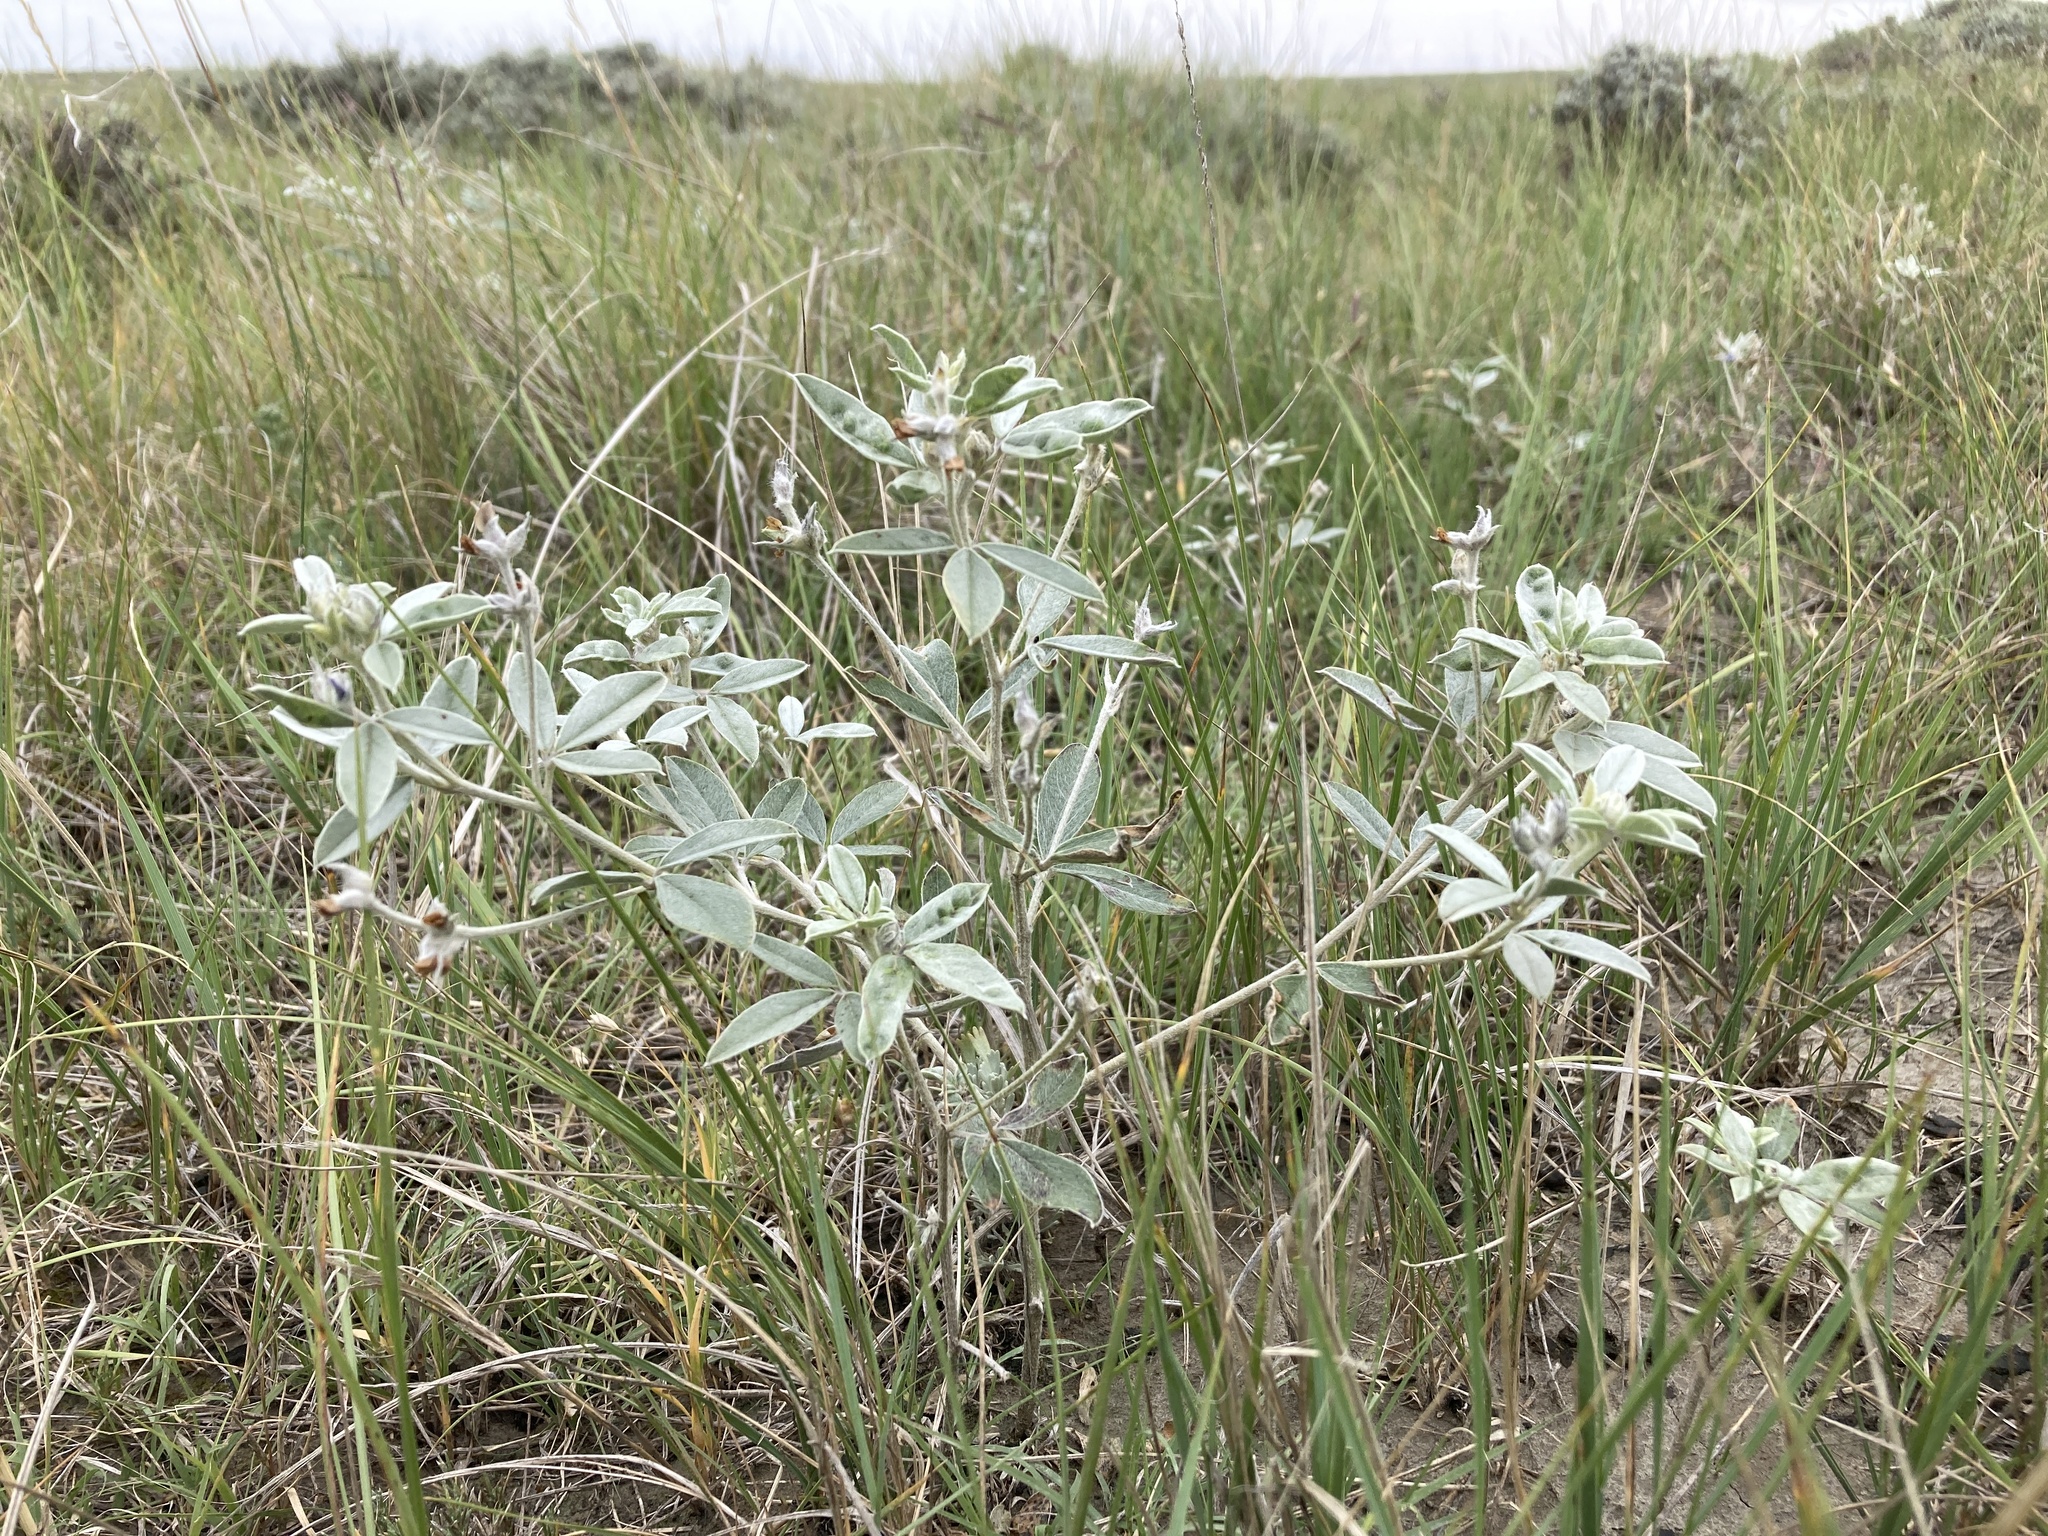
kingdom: Plantae
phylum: Tracheophyta
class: Magnoliopsida
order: Fabales
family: Fabaceae
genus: Pediomelum
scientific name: Pediomelum argophyllum
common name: Silver-leaved indian breadroot
